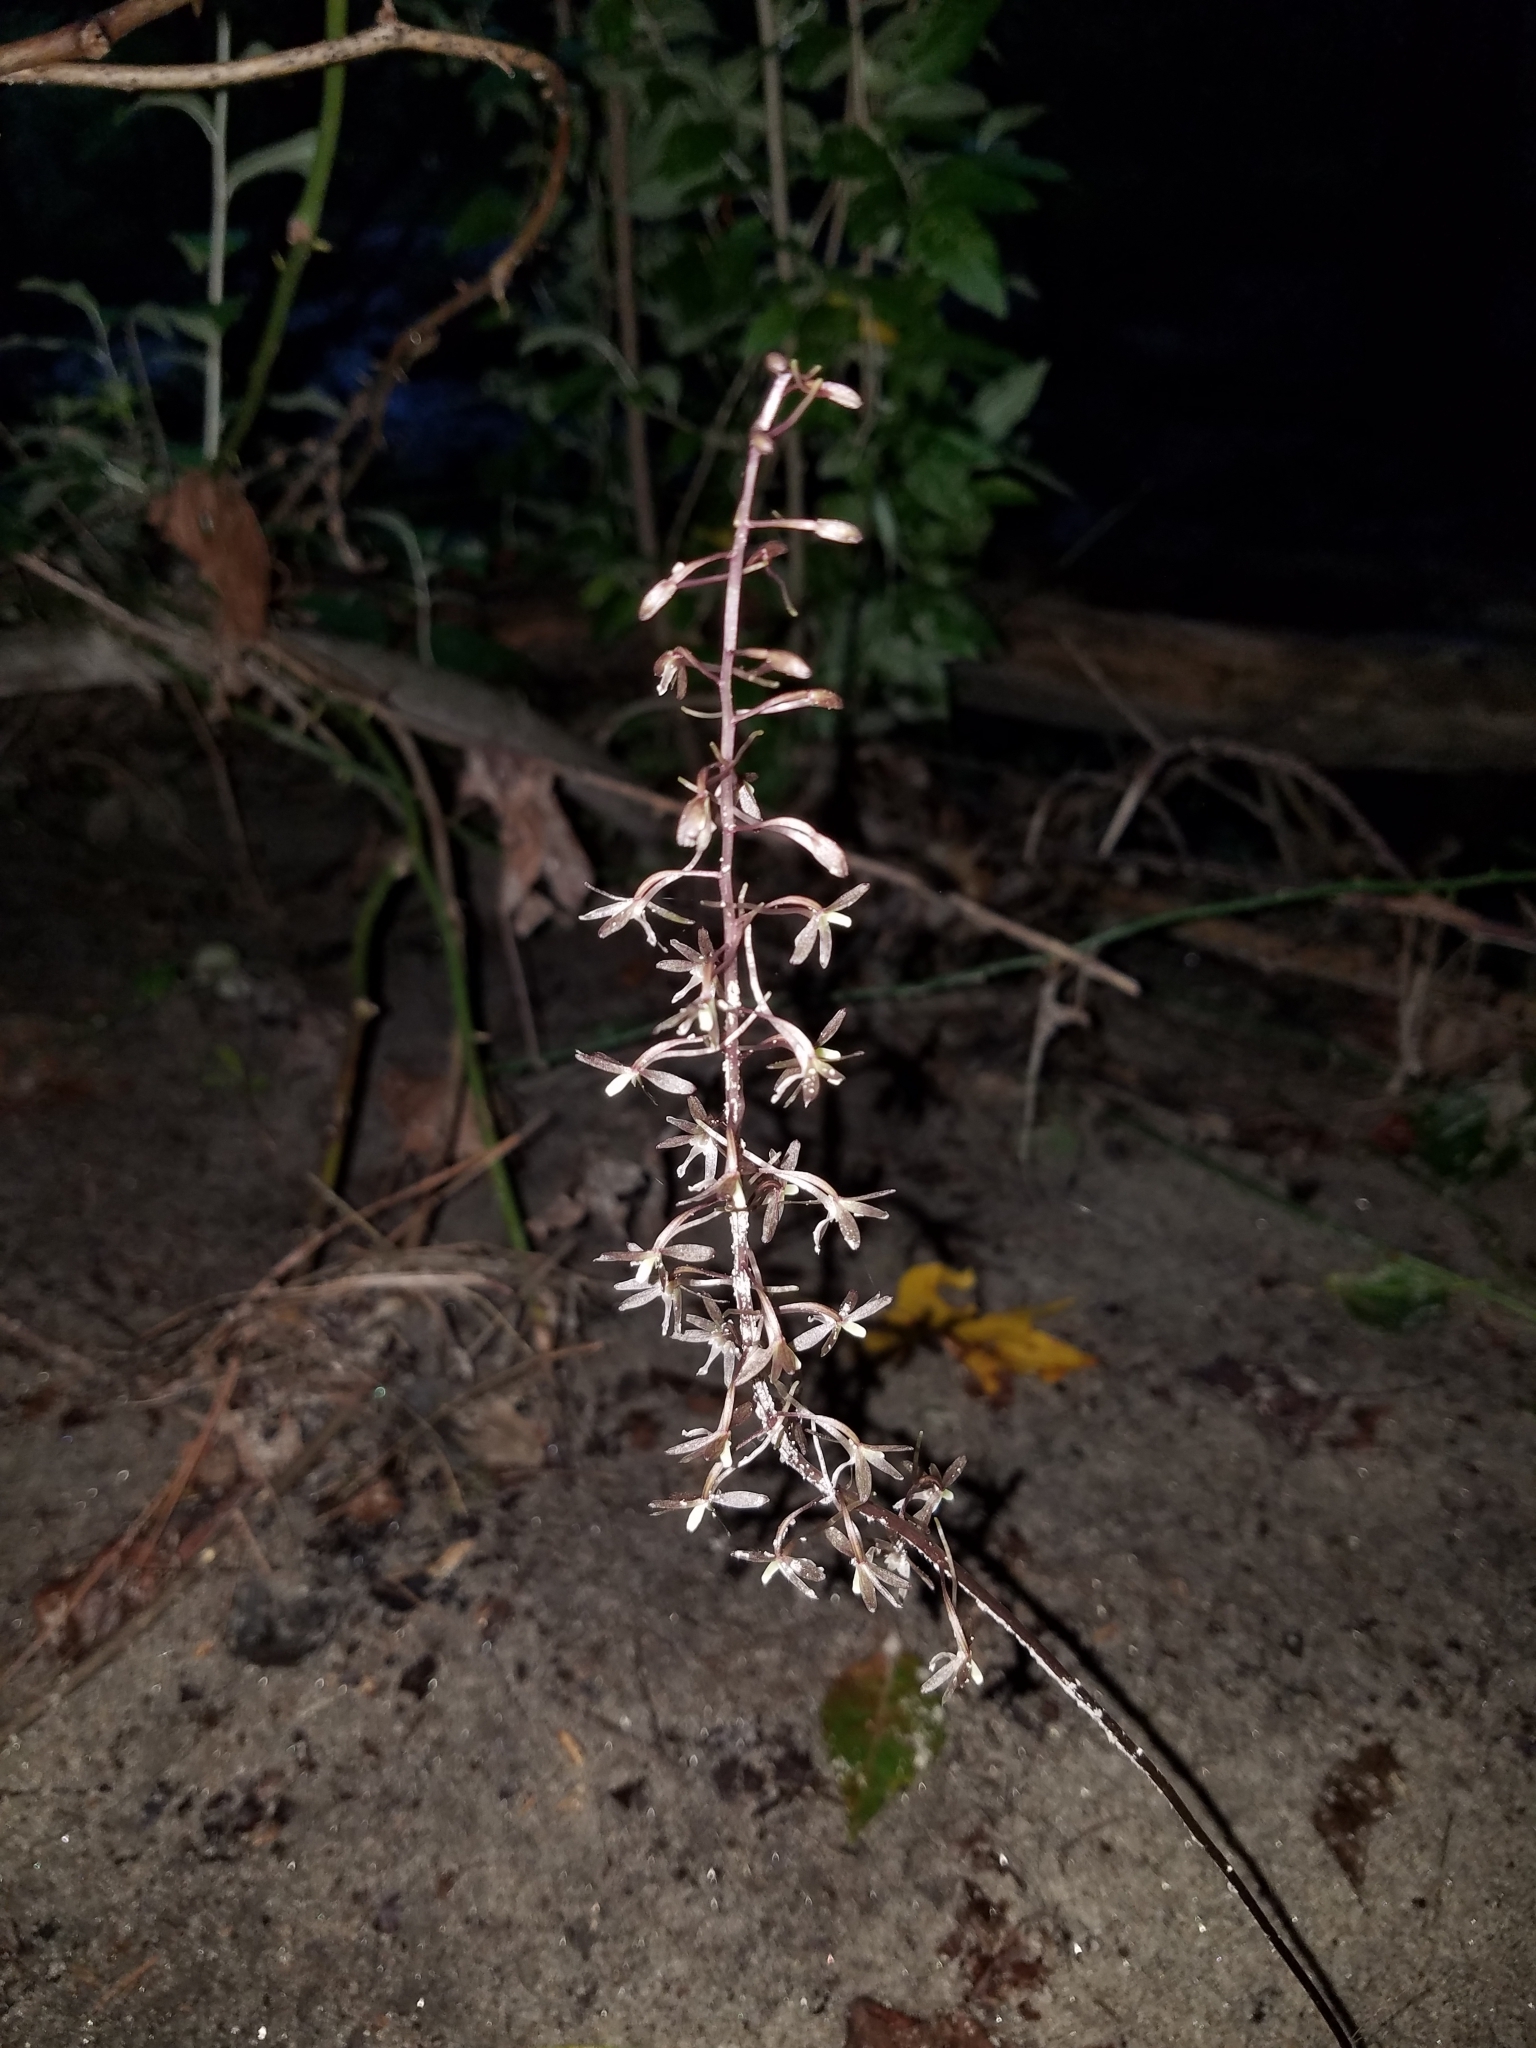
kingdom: Plantae
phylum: Tracheophyta
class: Liliopsida
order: Asparagales
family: Orchidaceae
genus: Tipularia
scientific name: Tipularia discolor
